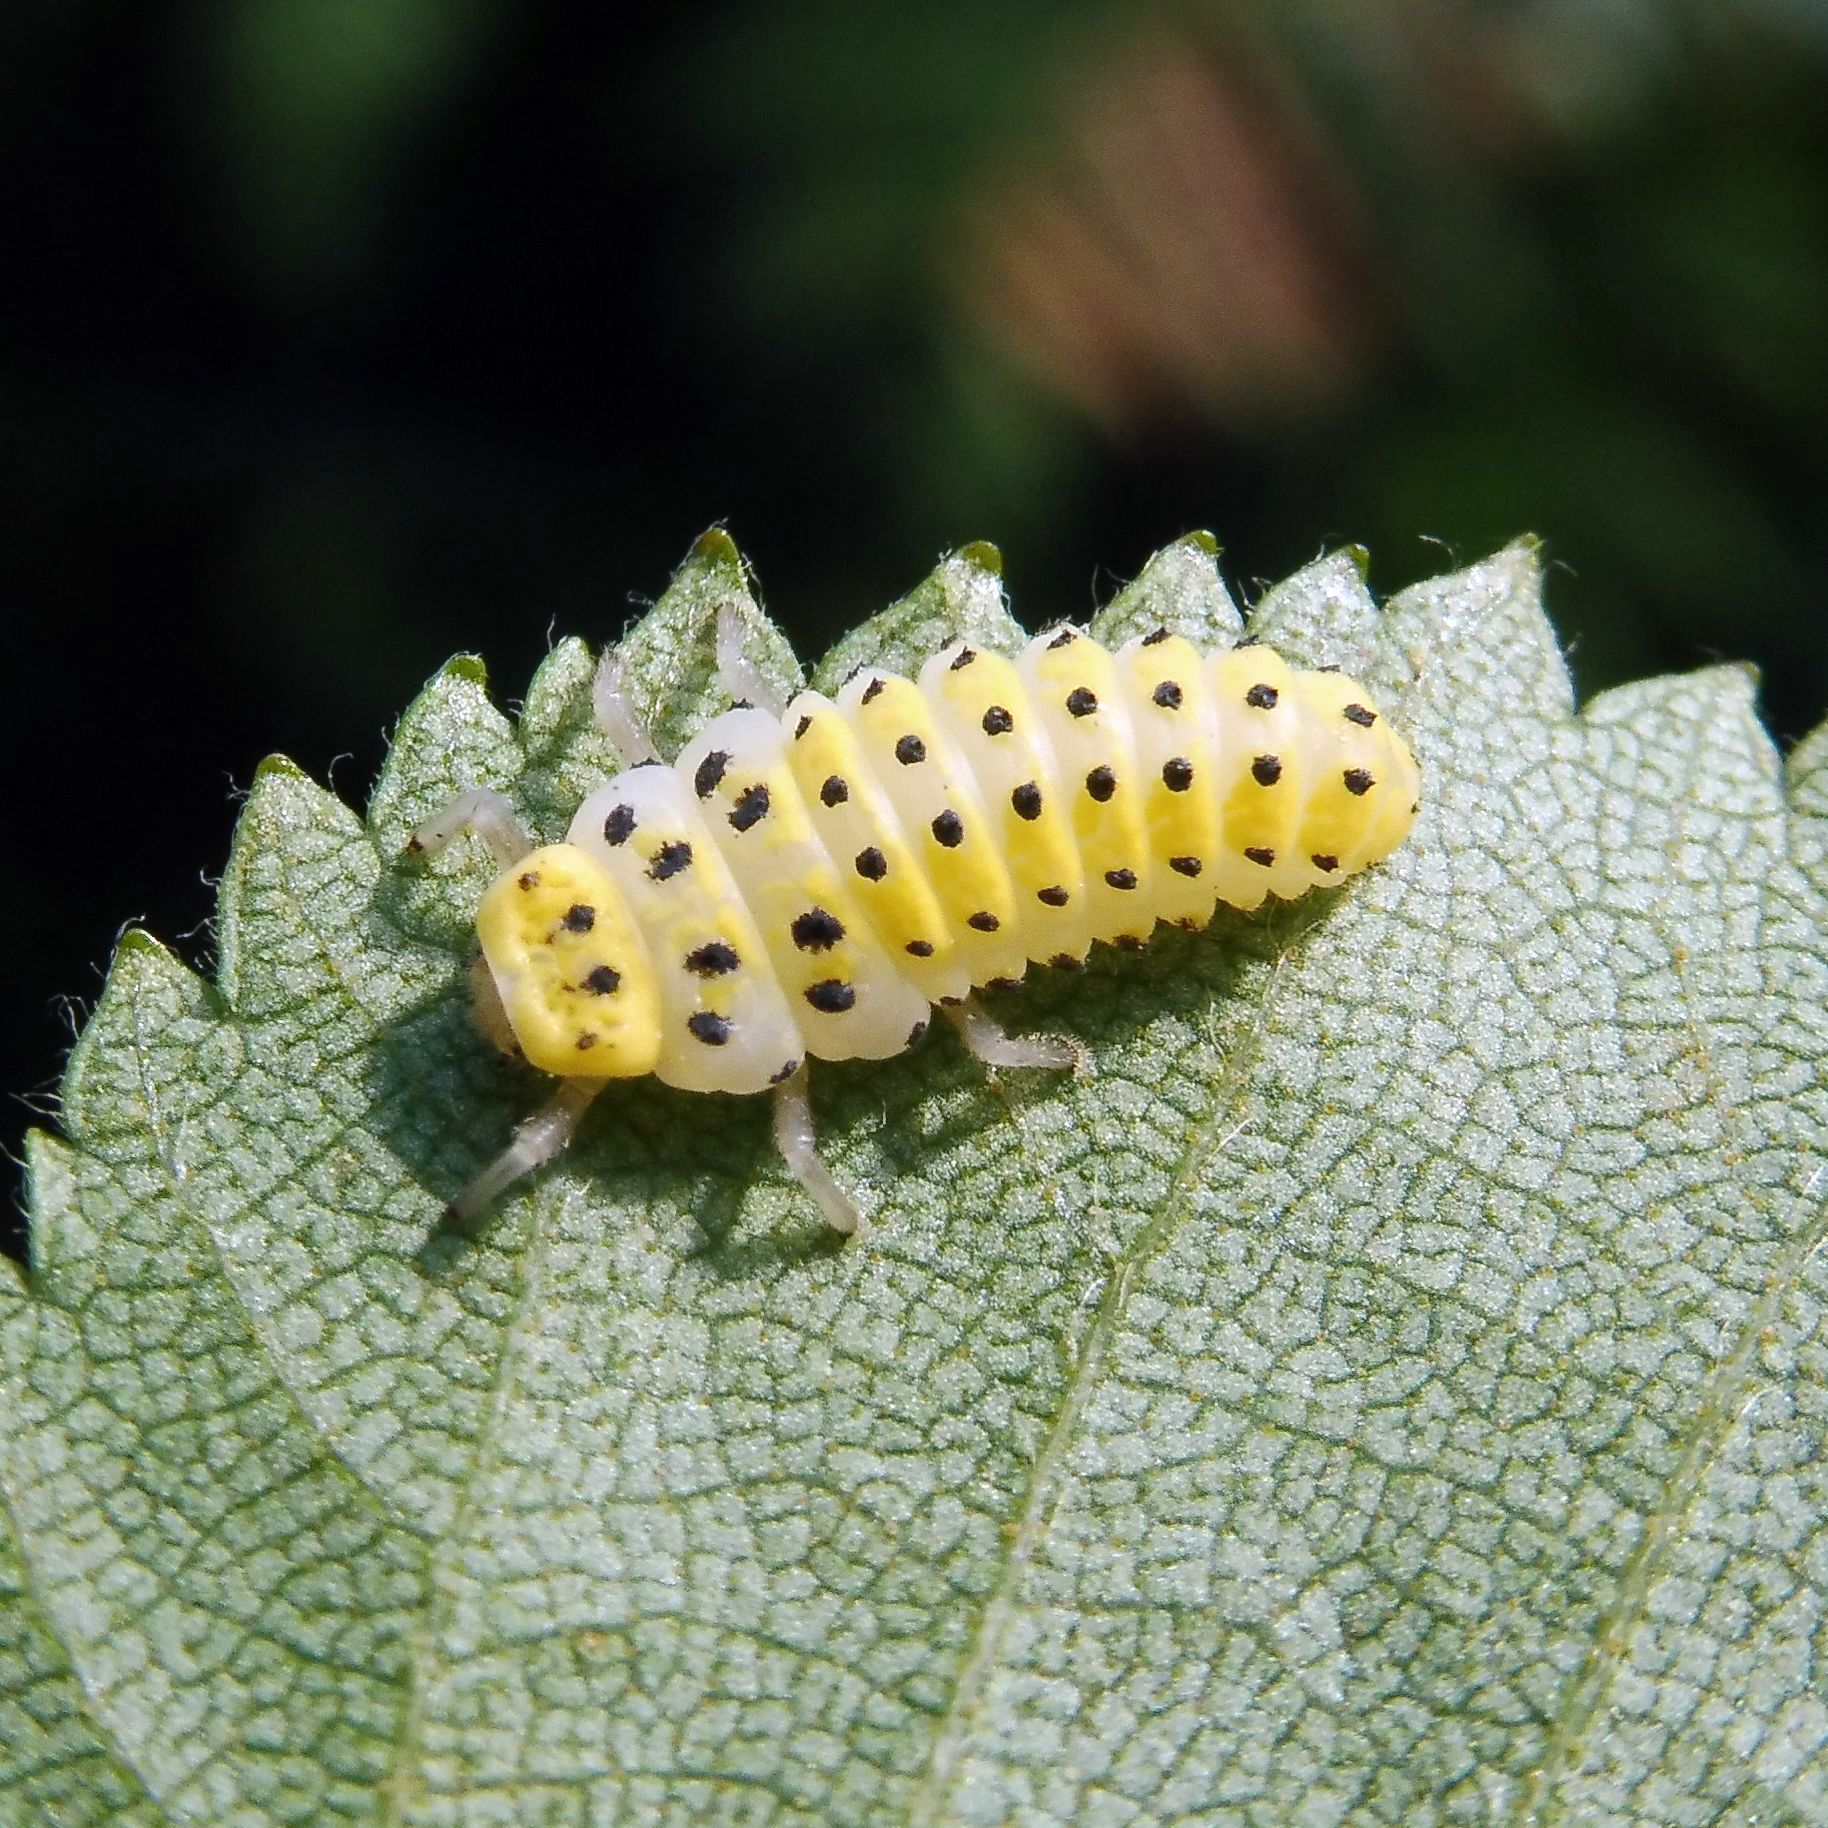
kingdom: Animalia
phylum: Arthropoda
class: Insecta
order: Coleoptera
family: Coccinellidae
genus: Halyzia
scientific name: Halyzia sedecimguttata
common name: Orange ladybird
